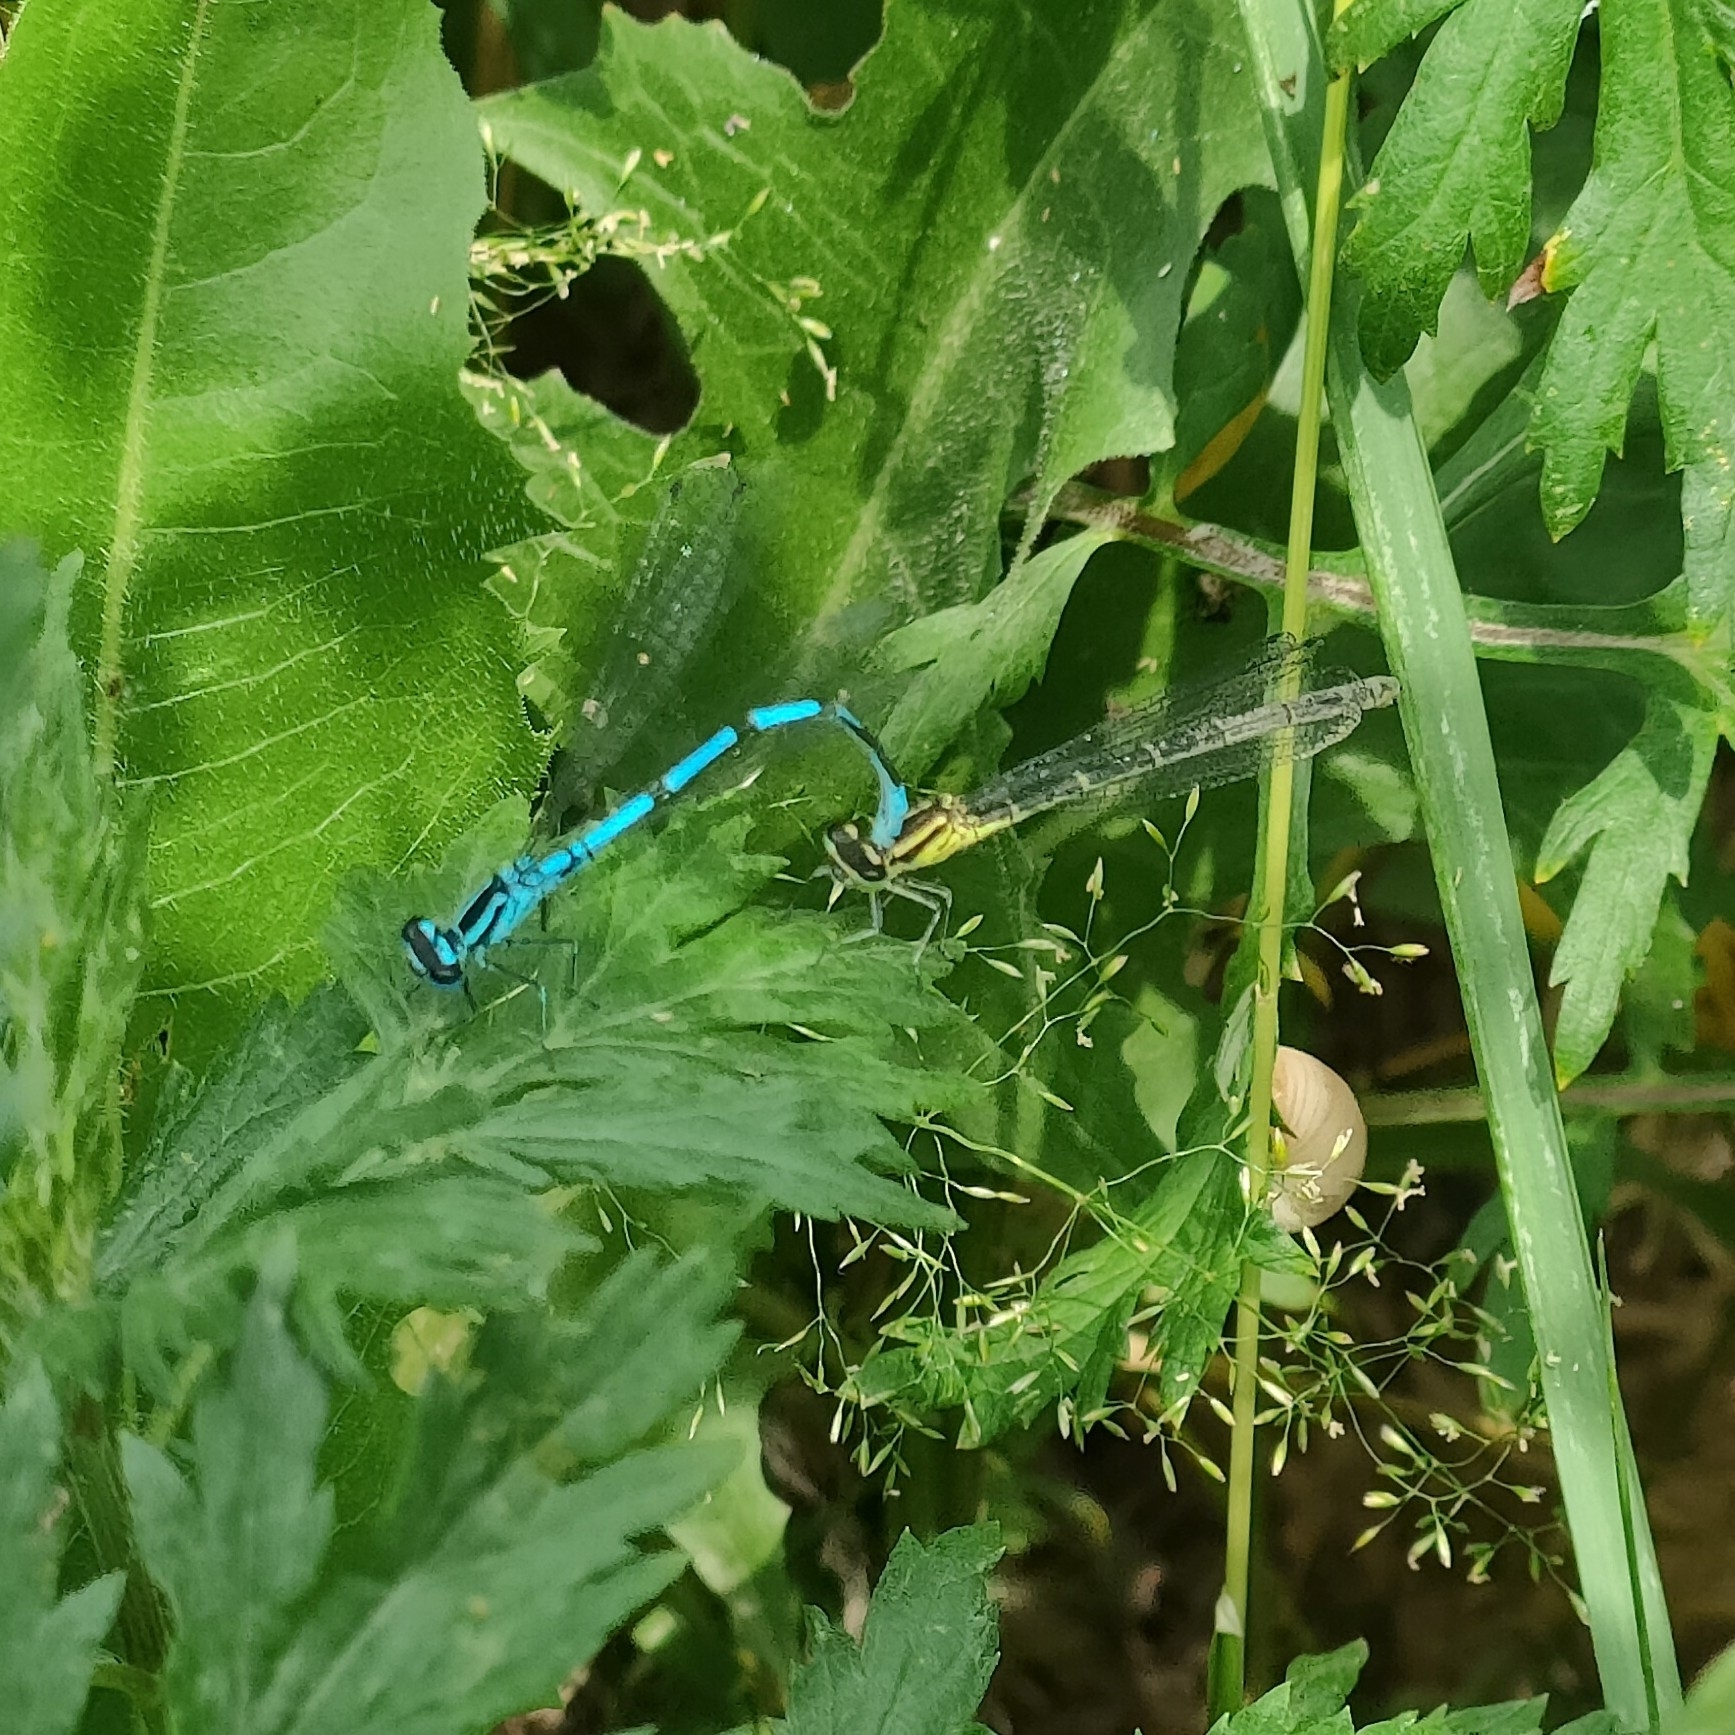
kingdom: Animalia
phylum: Arthropoda
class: Insecta
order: Odonata
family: Coenagrionidae
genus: Coenagrion
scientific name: Coenagrion puella
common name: Azure damselfly
